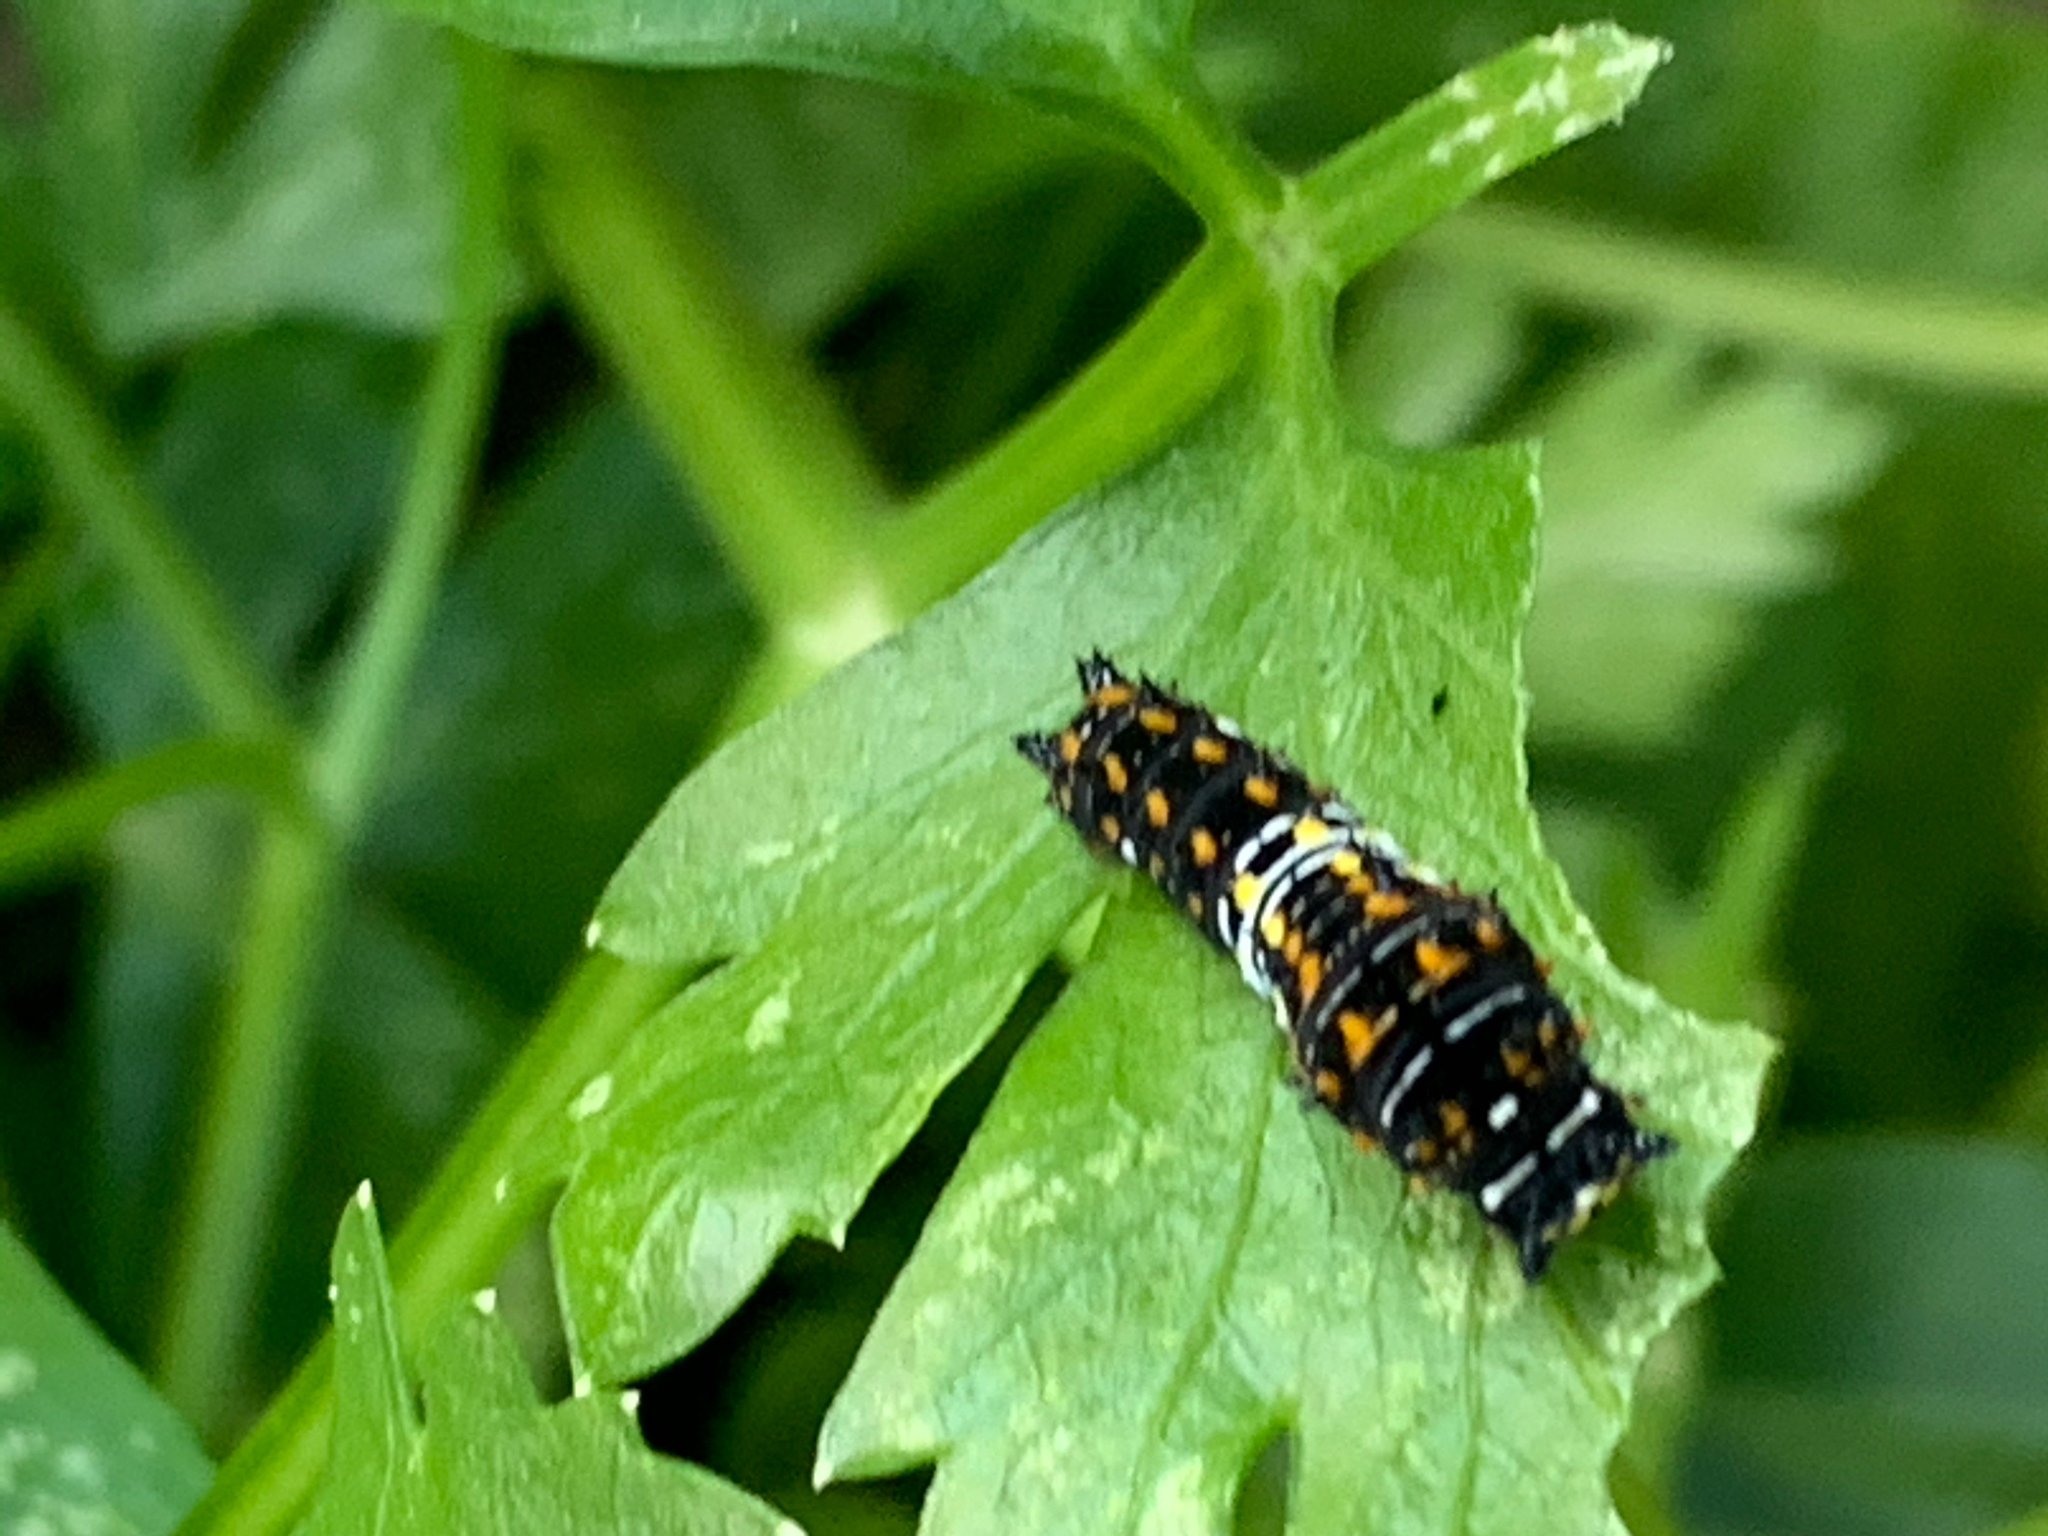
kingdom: Animalia
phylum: Arthropoda
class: Insecta
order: Lepidoptera
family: Papilionidae
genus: Papilio
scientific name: Papilio polyxenes
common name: Black swallowtail
